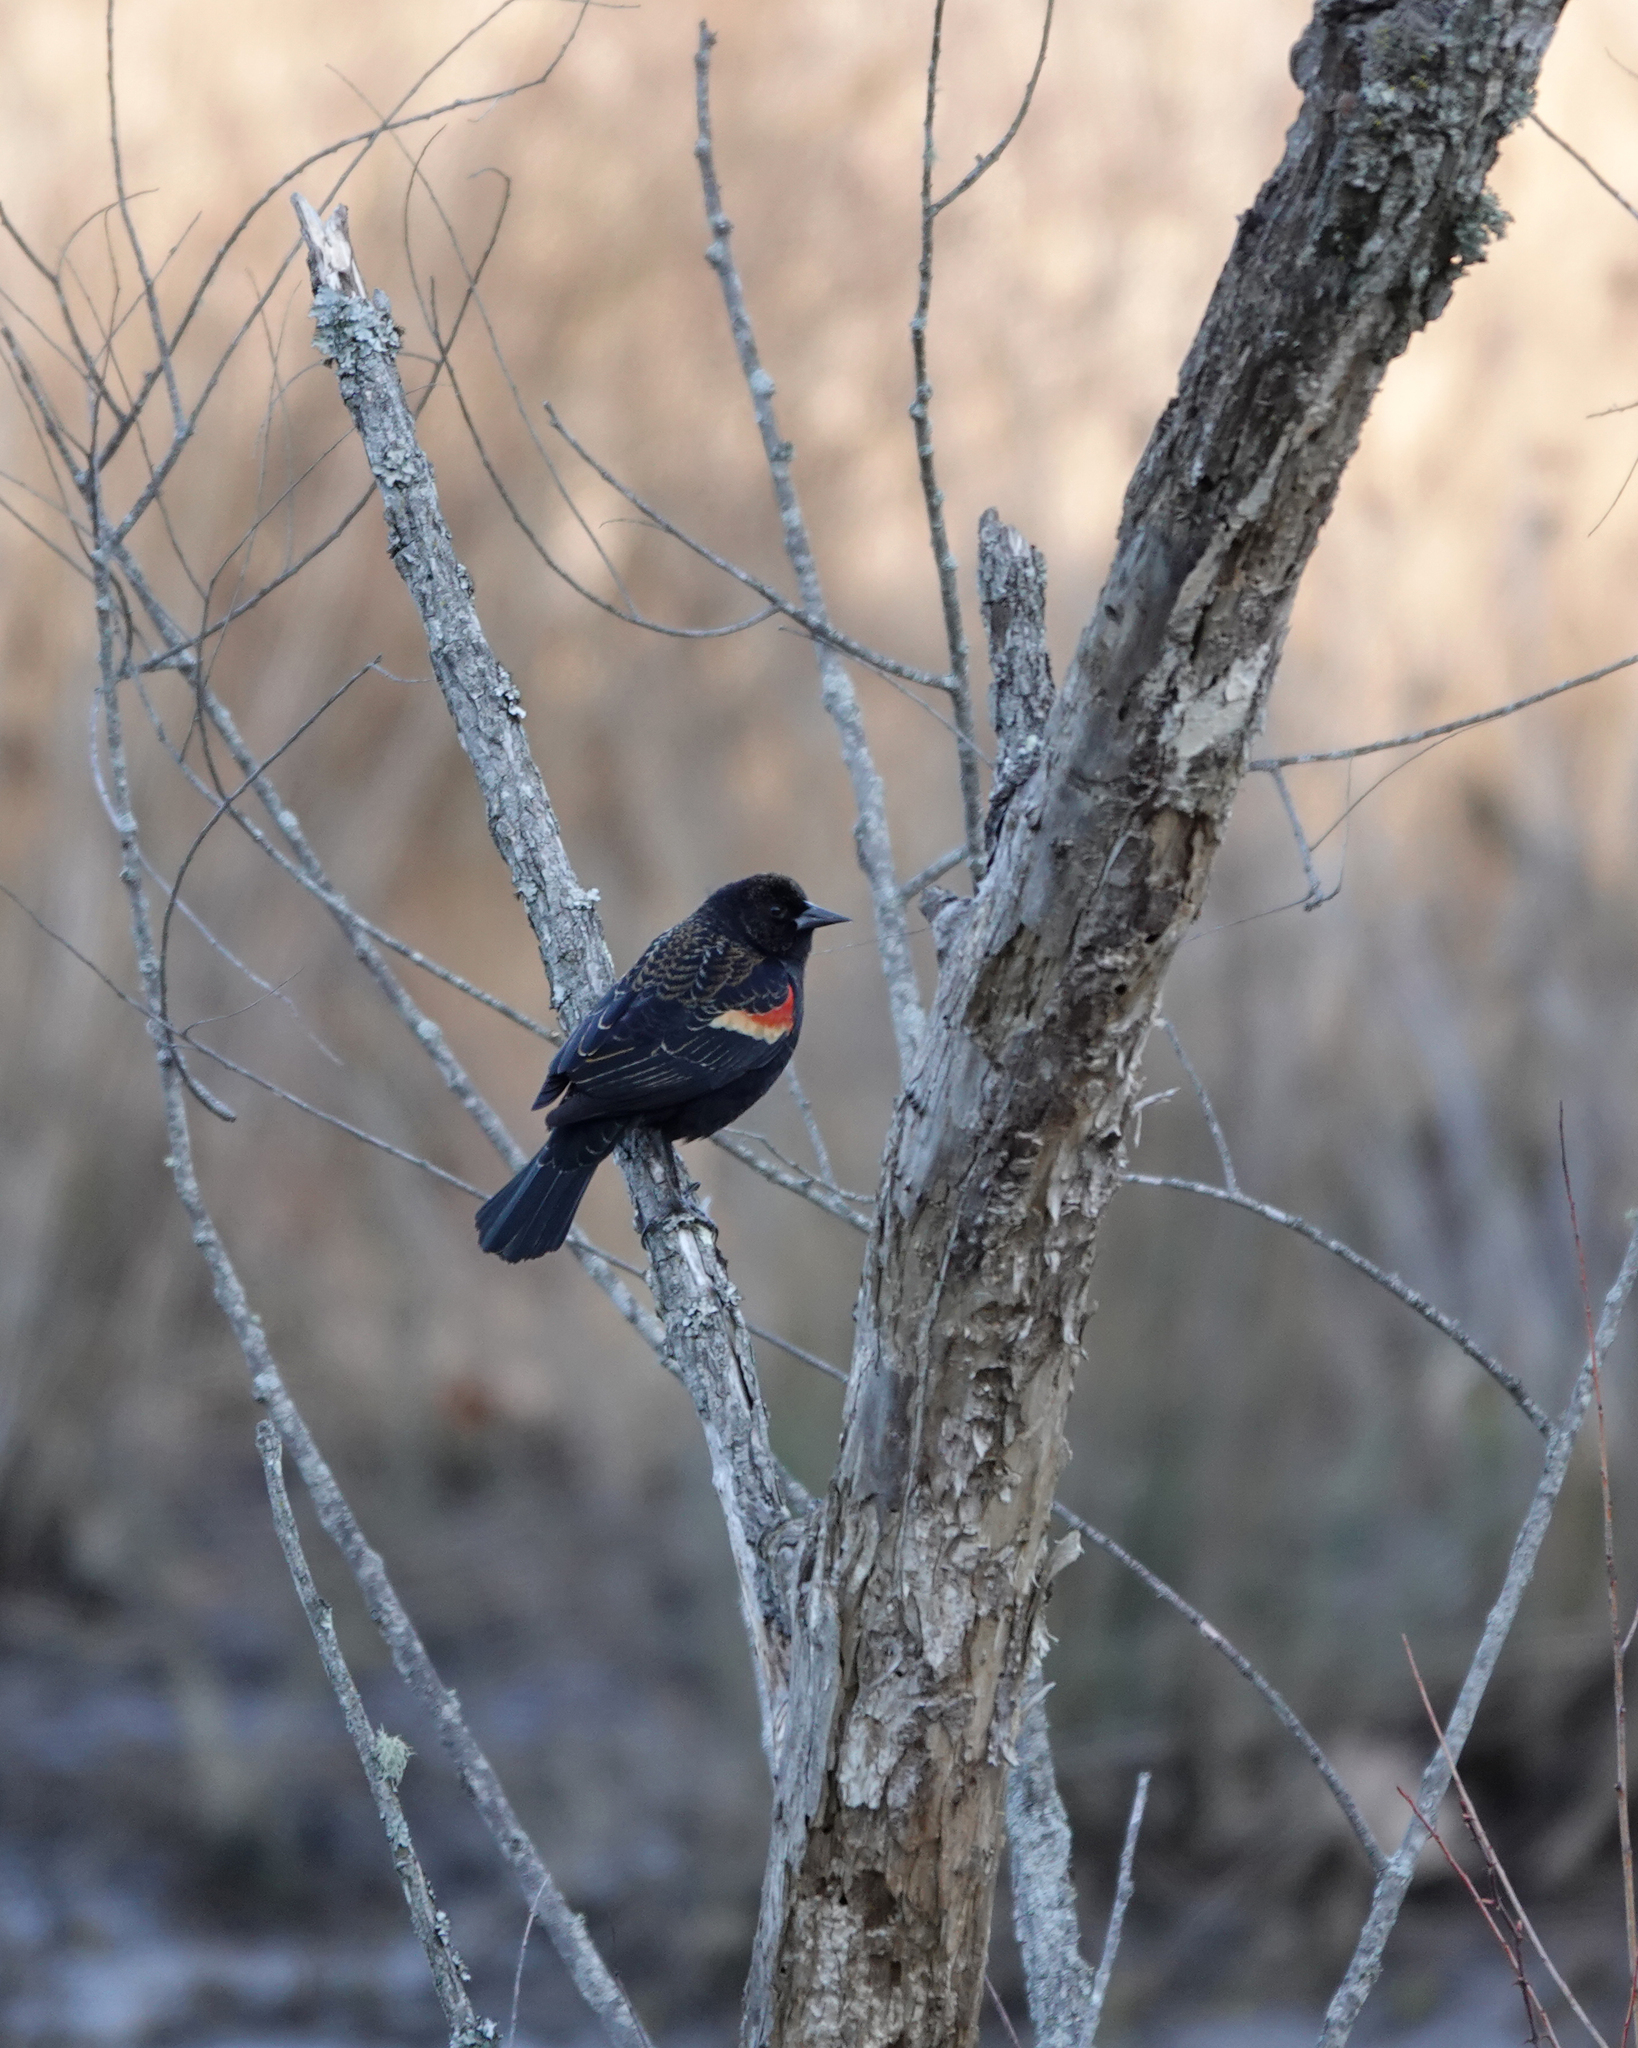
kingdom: Animalia
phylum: Chordata
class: Aves
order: Passeriformes
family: Icteridae
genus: Agelaius
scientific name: Agelaius phoeniceus
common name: Red-winged blackbird
